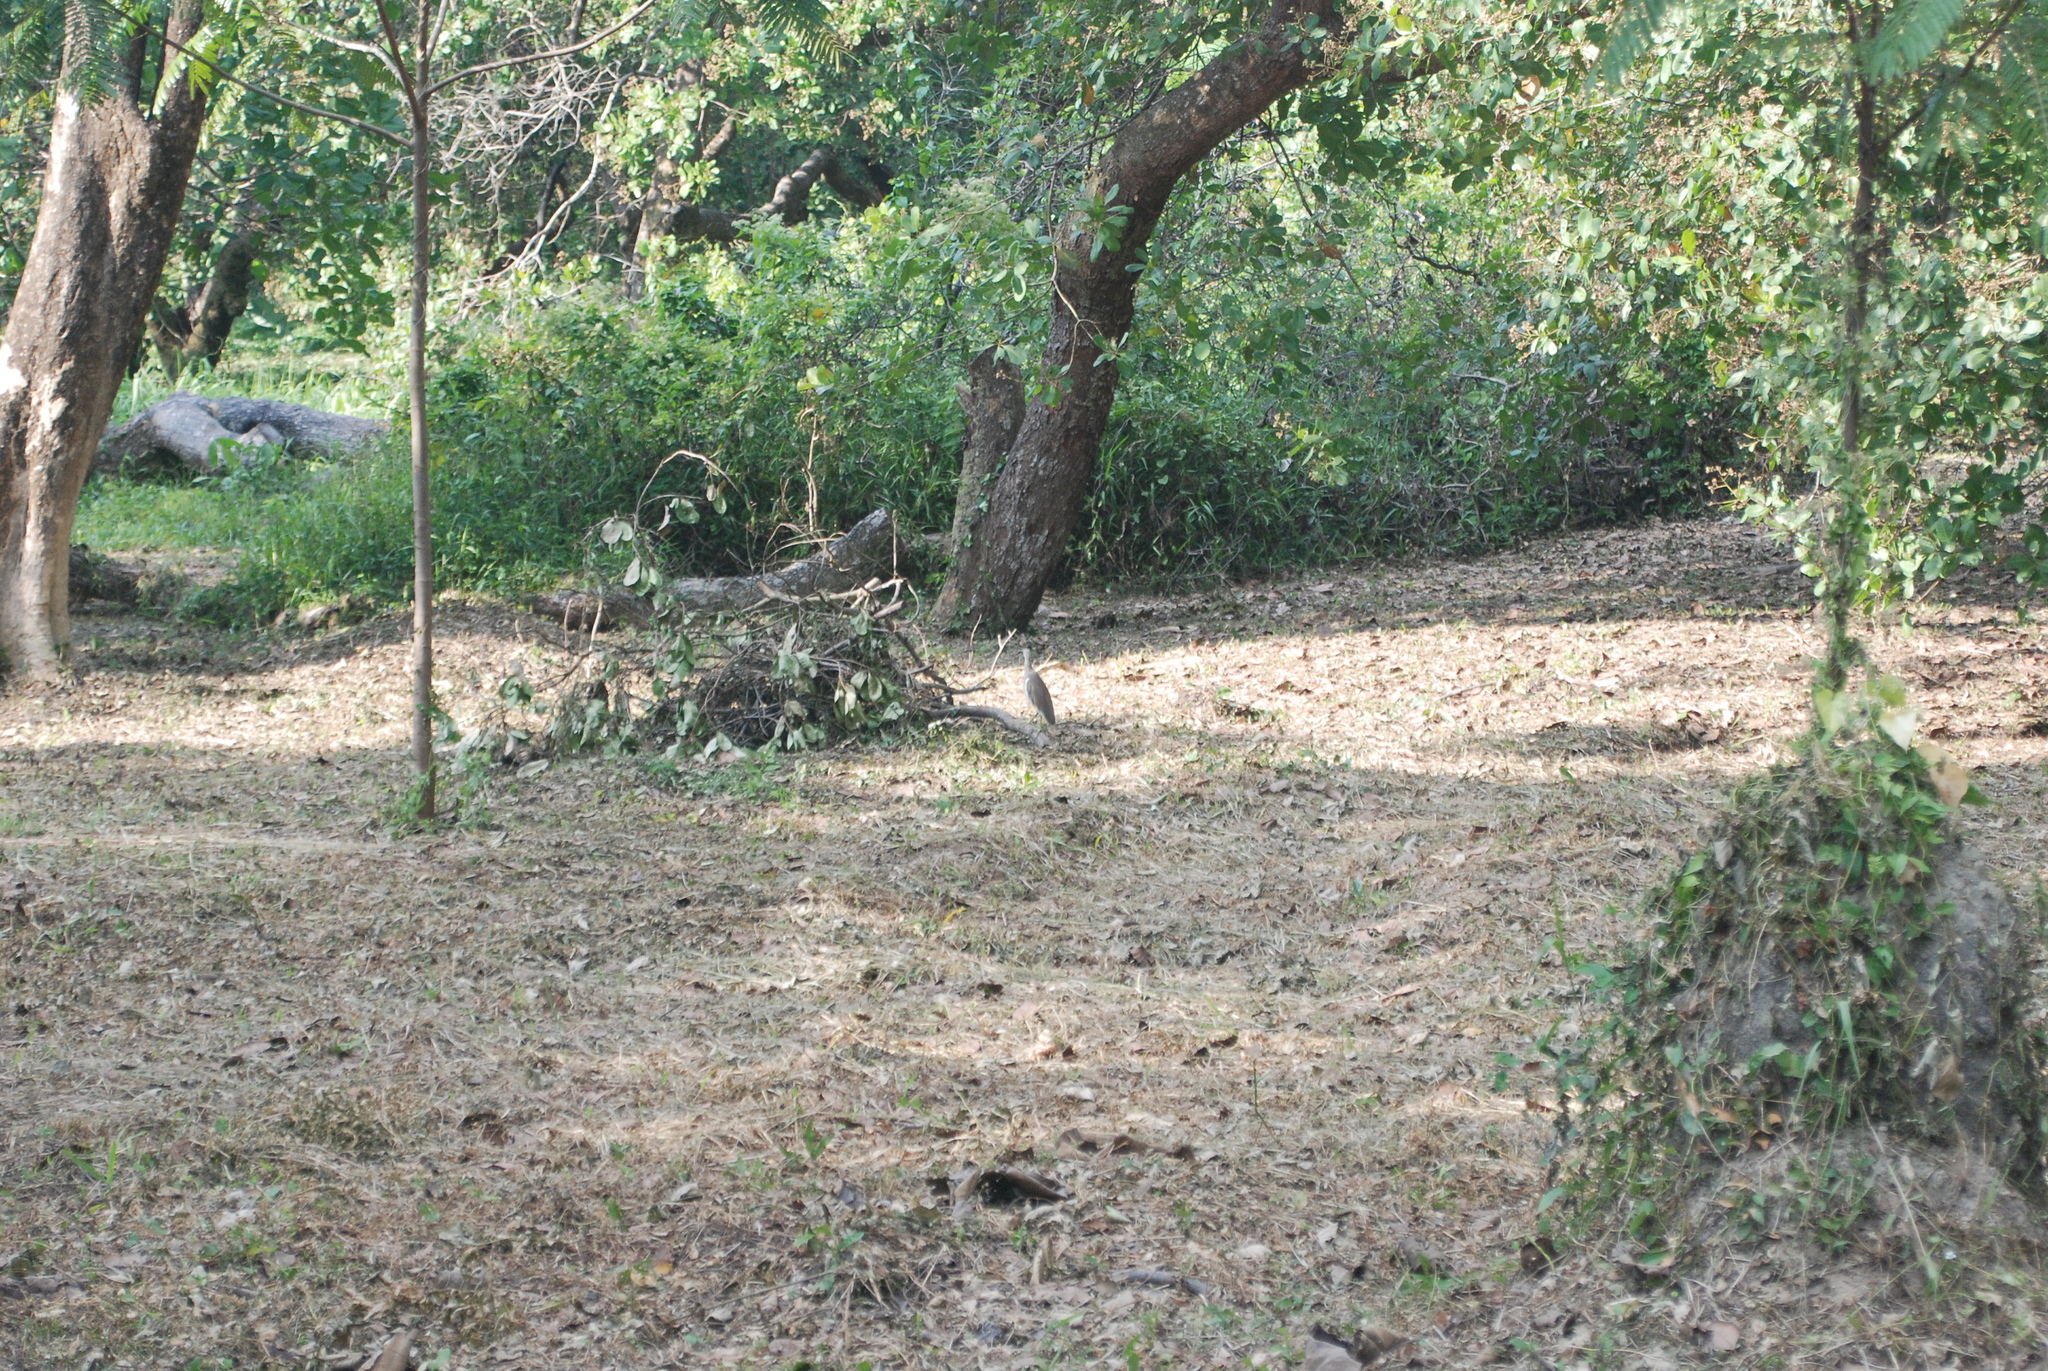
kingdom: Animalia
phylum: Chordata
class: Aves
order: Pelecaniformes
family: Ardeidae
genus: Ardeola
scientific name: Ardeola
